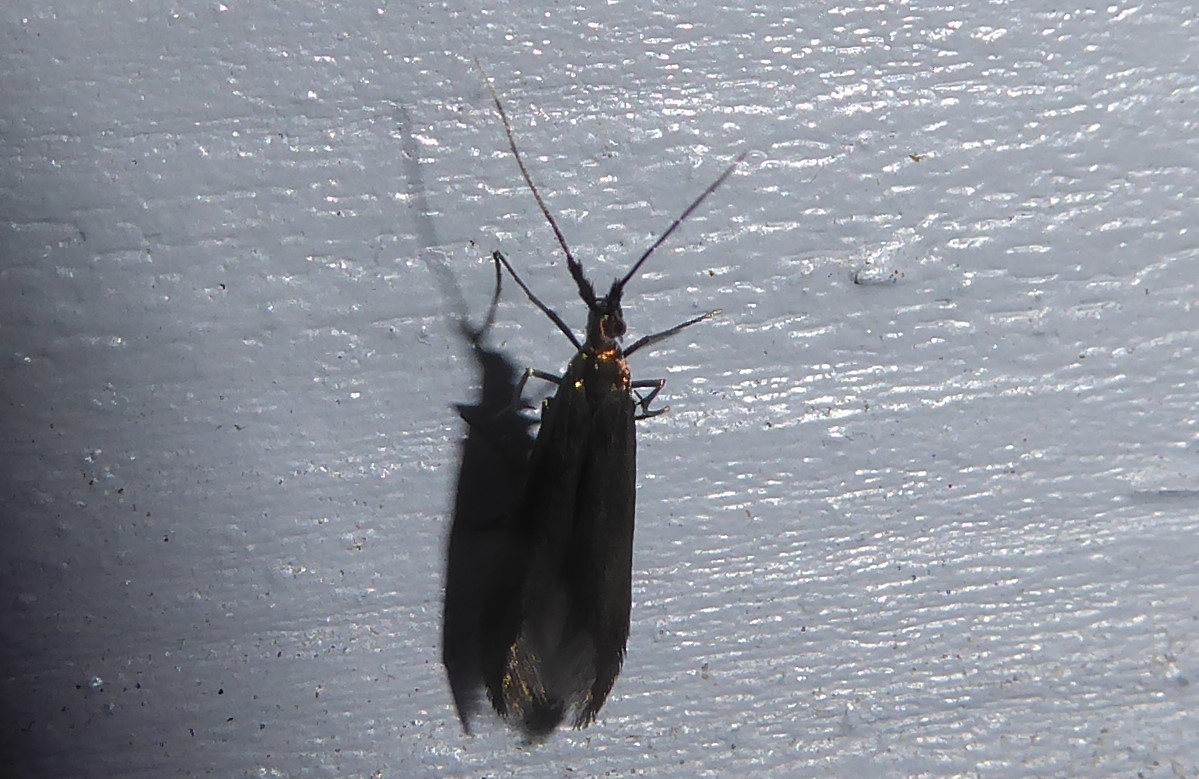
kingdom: Animalia
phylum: Arthropoda
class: Insecta
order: Lepidoptera
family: Coleophoridae
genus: Coleophora
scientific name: Coleophora deauratella
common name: Red-clover case-bearer
